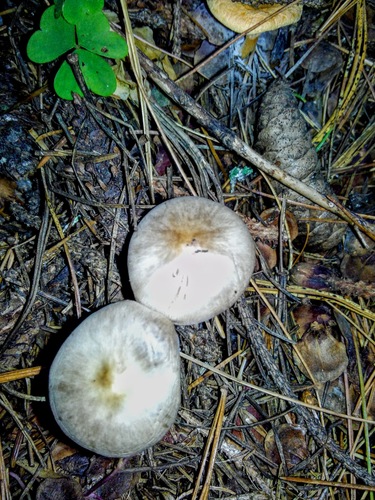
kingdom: Fungi
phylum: Basidiomycota
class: Agaricomycetes
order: Agaricales
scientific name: Agaricales
